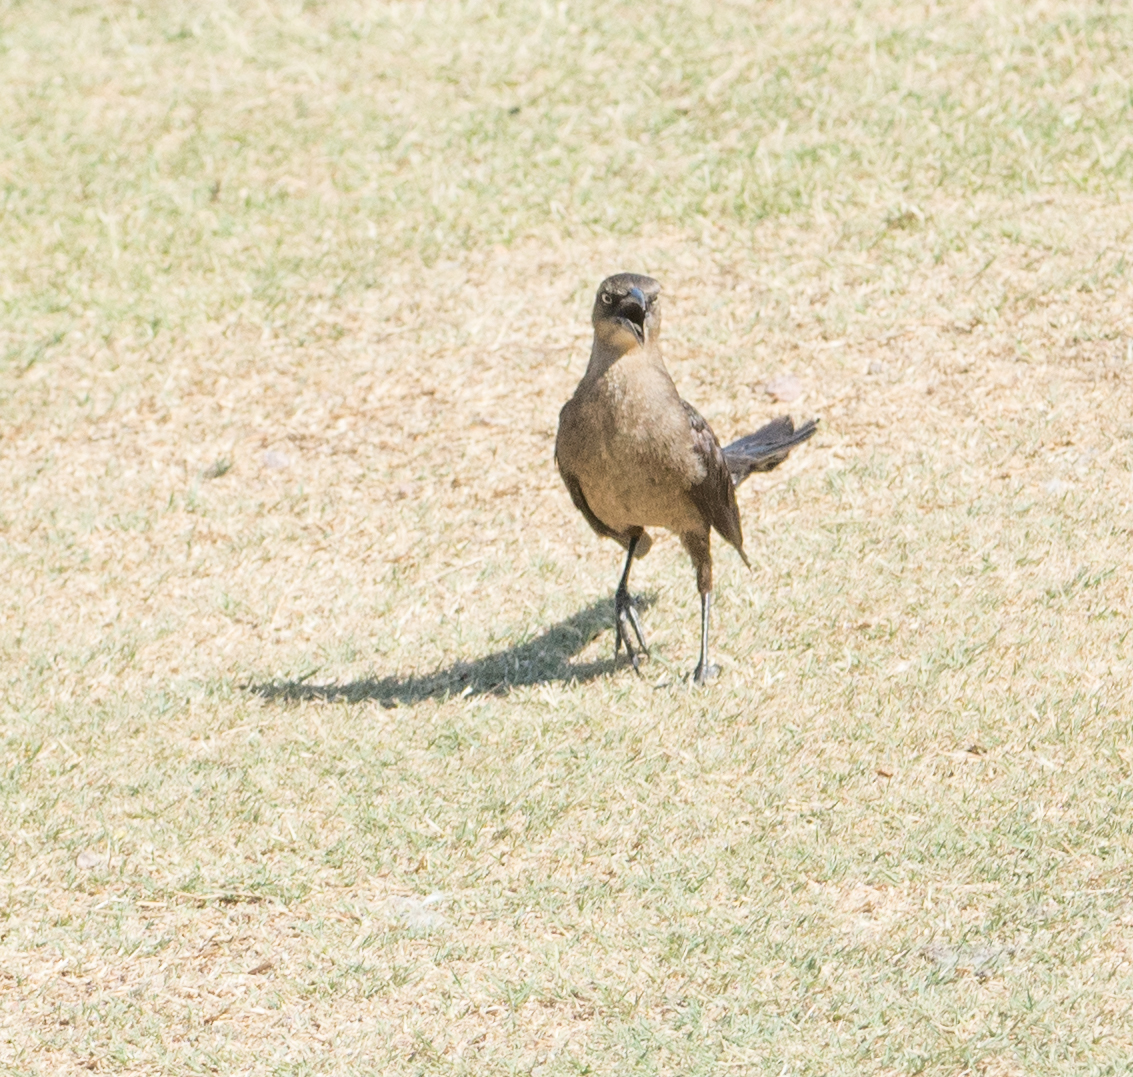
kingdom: Animalia
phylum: Chordata
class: Aves
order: Passeriformes
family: Icteridae
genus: Quiscalus
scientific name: Quiscalus mexicanus
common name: Great-tailed grackle
